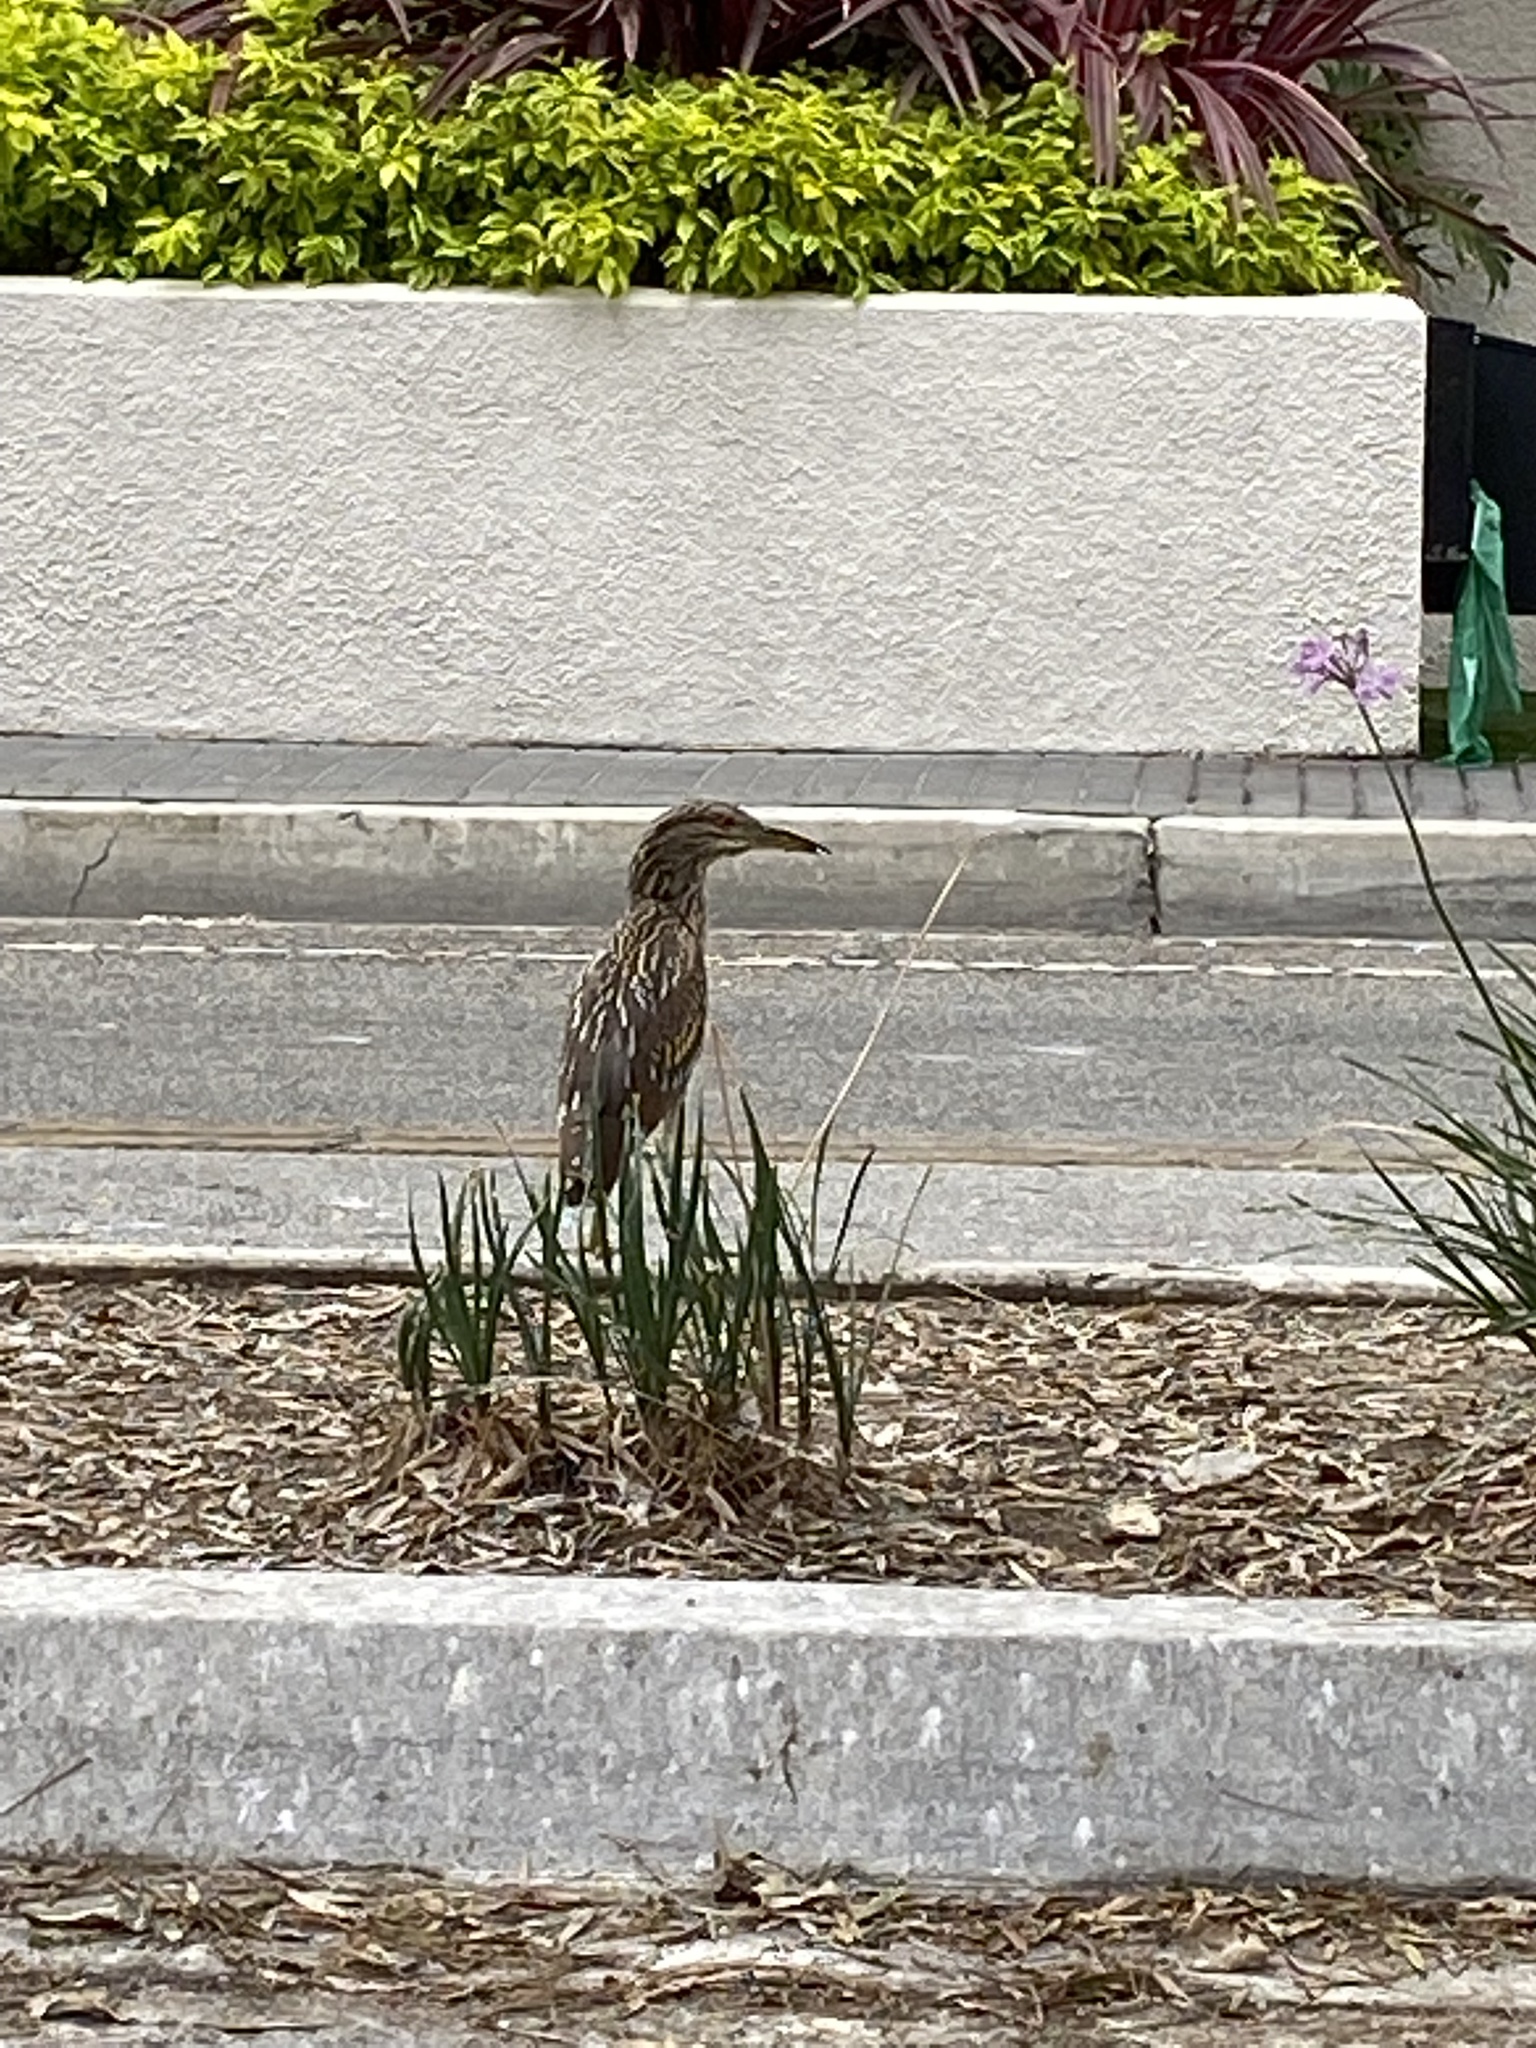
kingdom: Animalia
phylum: Chordata
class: Aves
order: Pelecaniformes
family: Ardeidae
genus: Nycticorax
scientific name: Nycticorax nycticorax
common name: Black-crowned night heron
